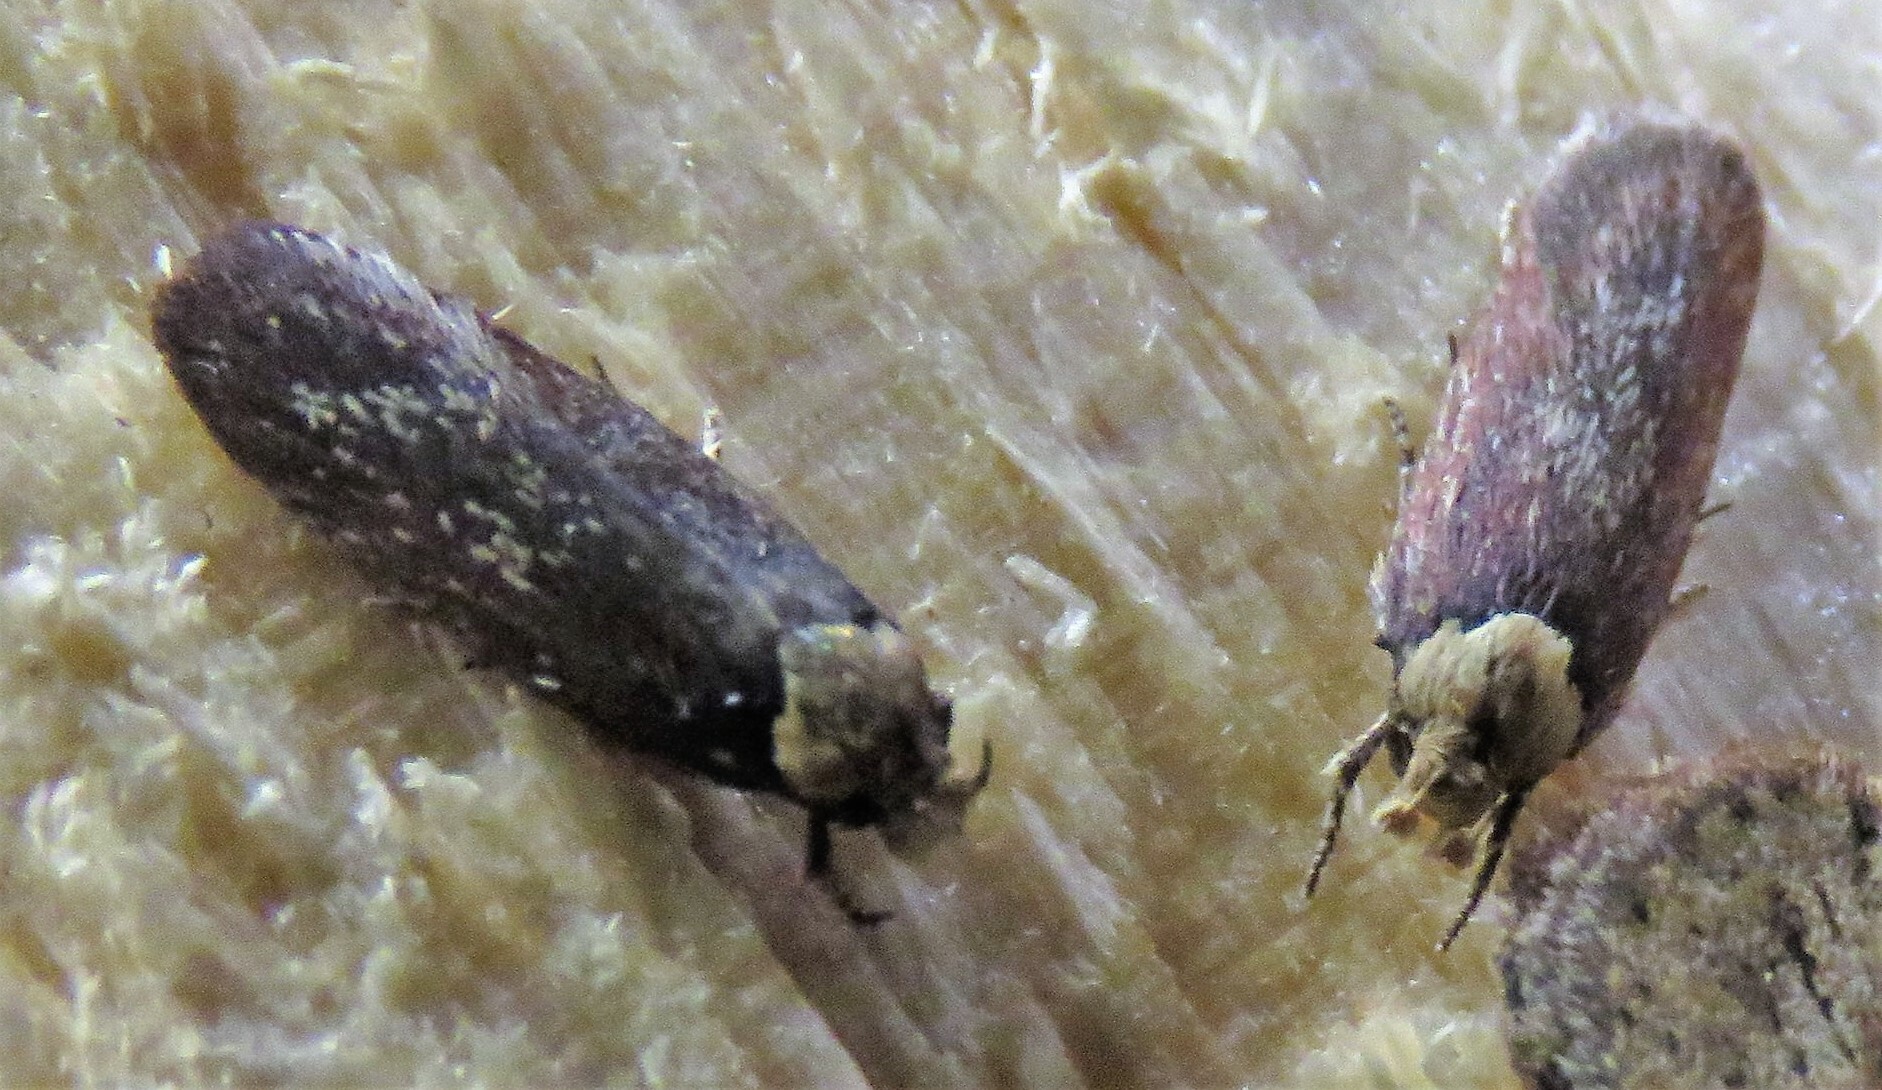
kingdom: Animalia
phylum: Arthropoda
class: Insecta
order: Lepidoptera
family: Depressariidae
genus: Depressaria
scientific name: Depressaria depressana
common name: Lost flat-body
